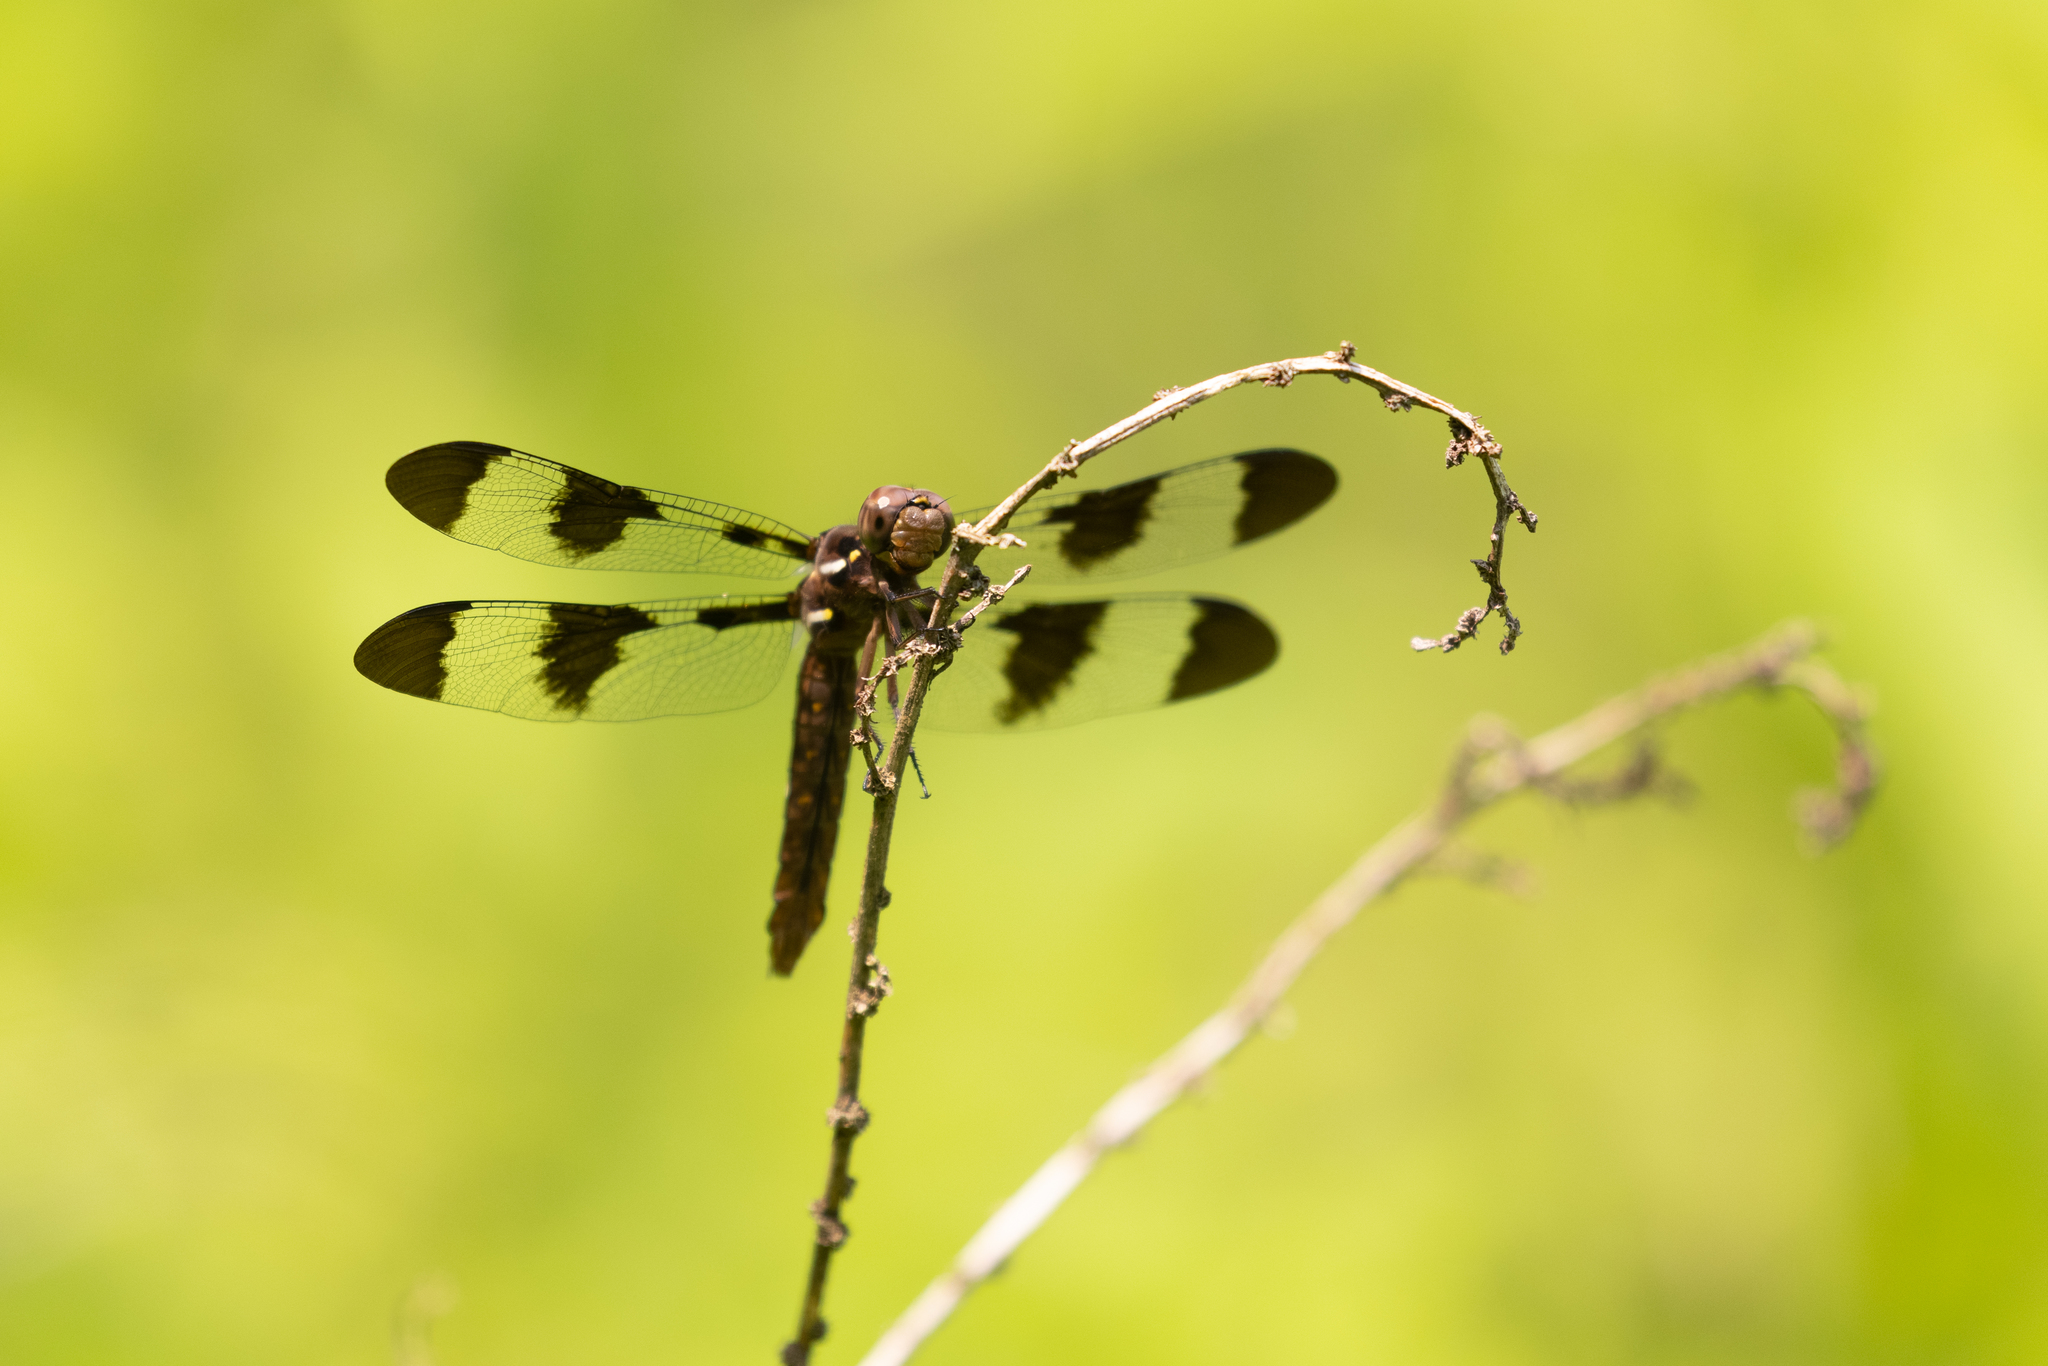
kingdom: Animalia
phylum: Arthropoda
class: Insecta
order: Odonata
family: Libellulidae
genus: Plathemis
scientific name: Plathemis lydia
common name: Common whitetail
